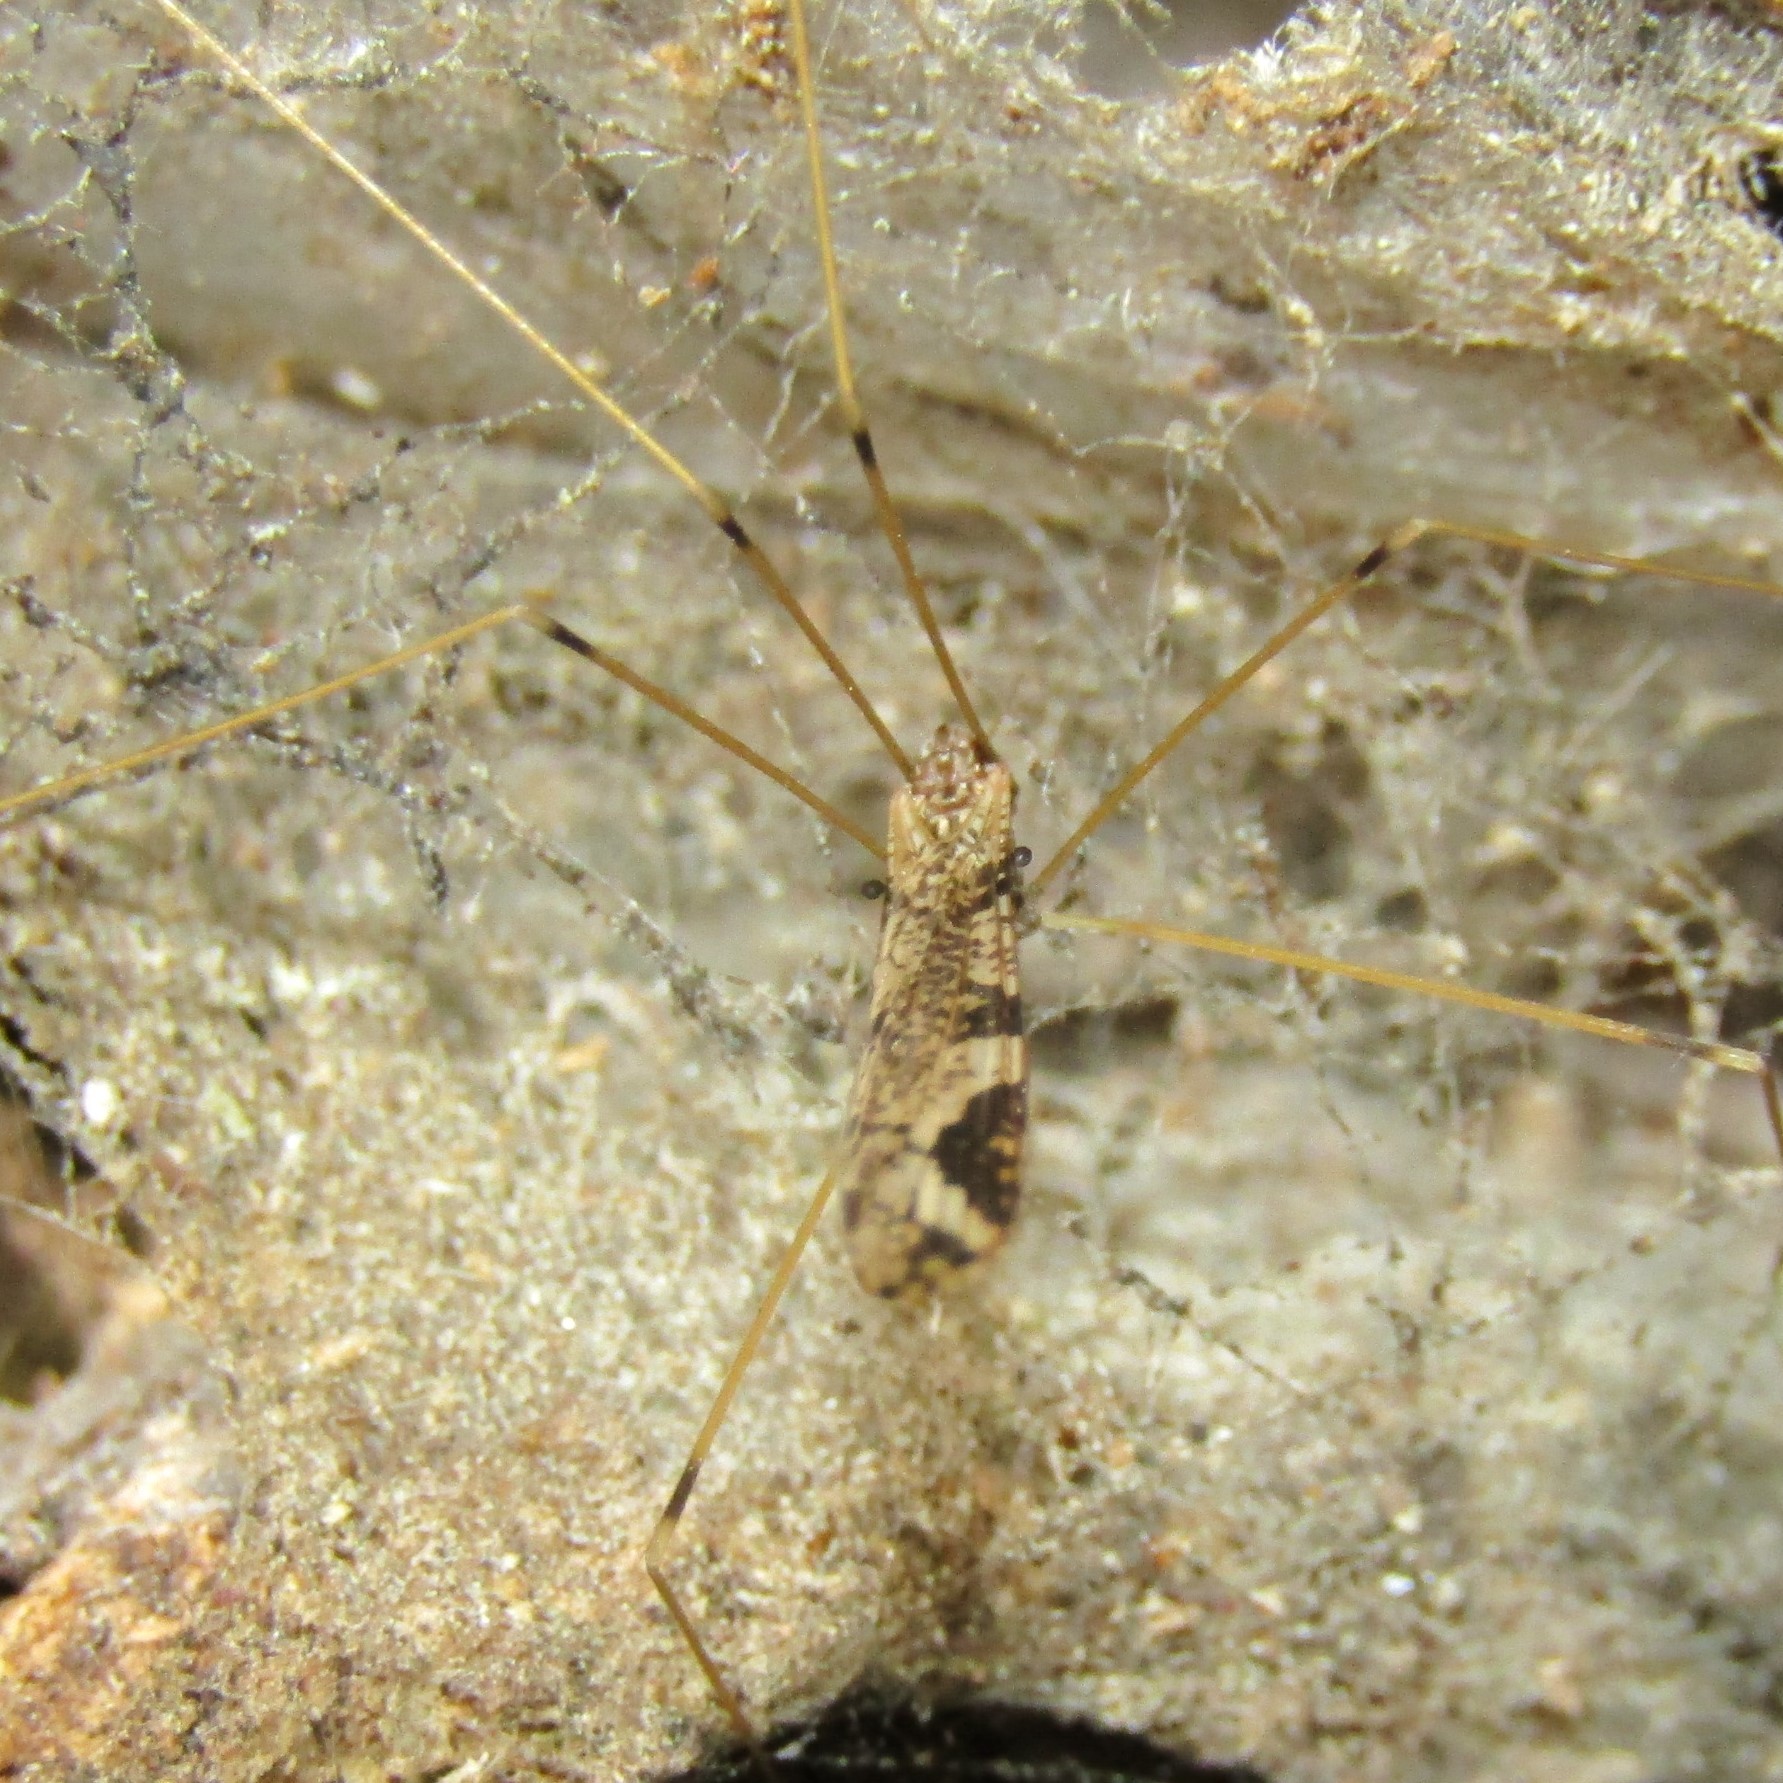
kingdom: Animalia
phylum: Arthropoda
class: Insecta
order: Diptera
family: Limoniidae
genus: Discobola
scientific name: Discobola striata
